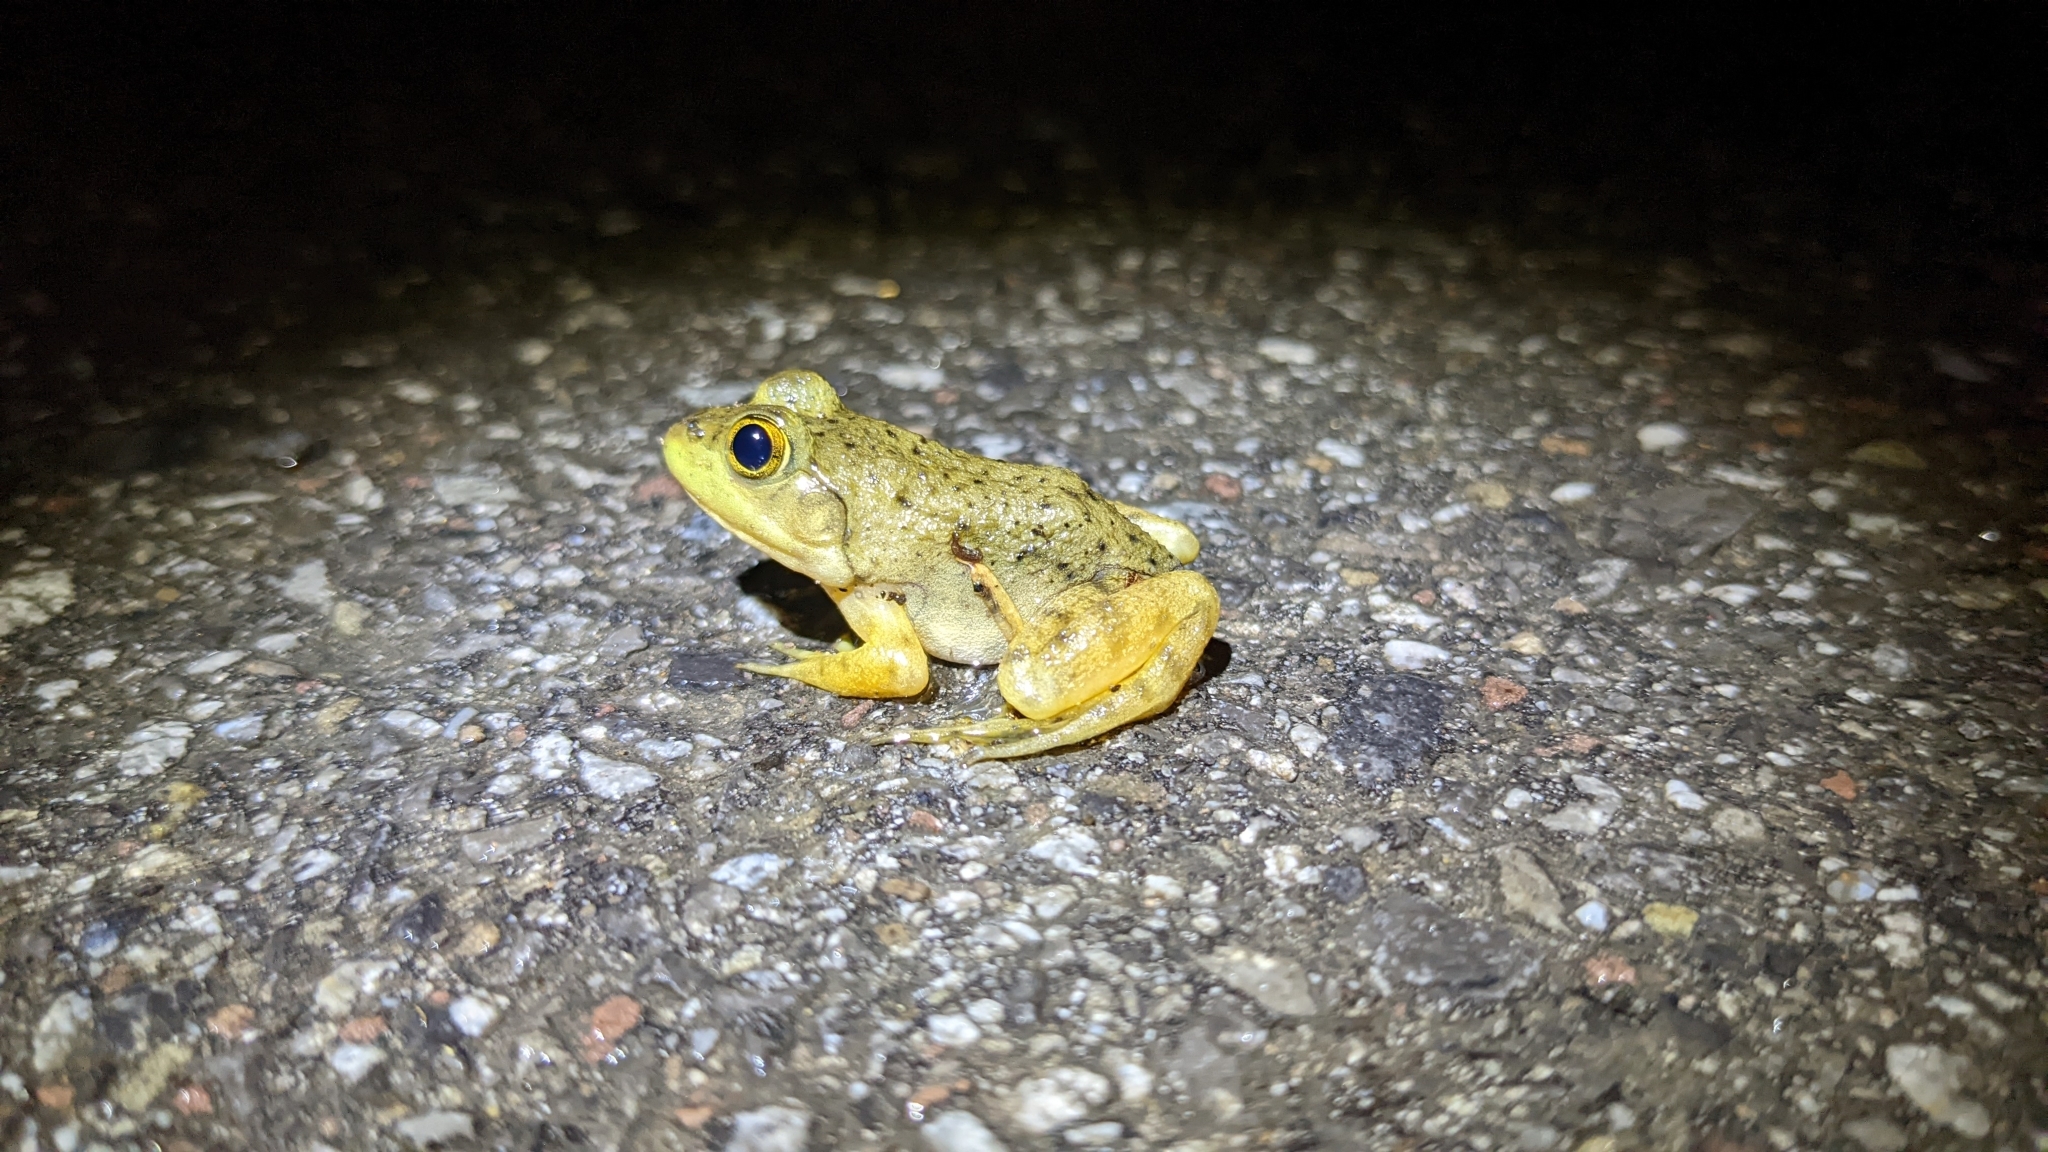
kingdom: Animalia
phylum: Chordata
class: Amphibia
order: Anura
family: Ranidae
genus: Lithobates
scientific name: Lithobates catesbeianus
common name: American bullfrog
